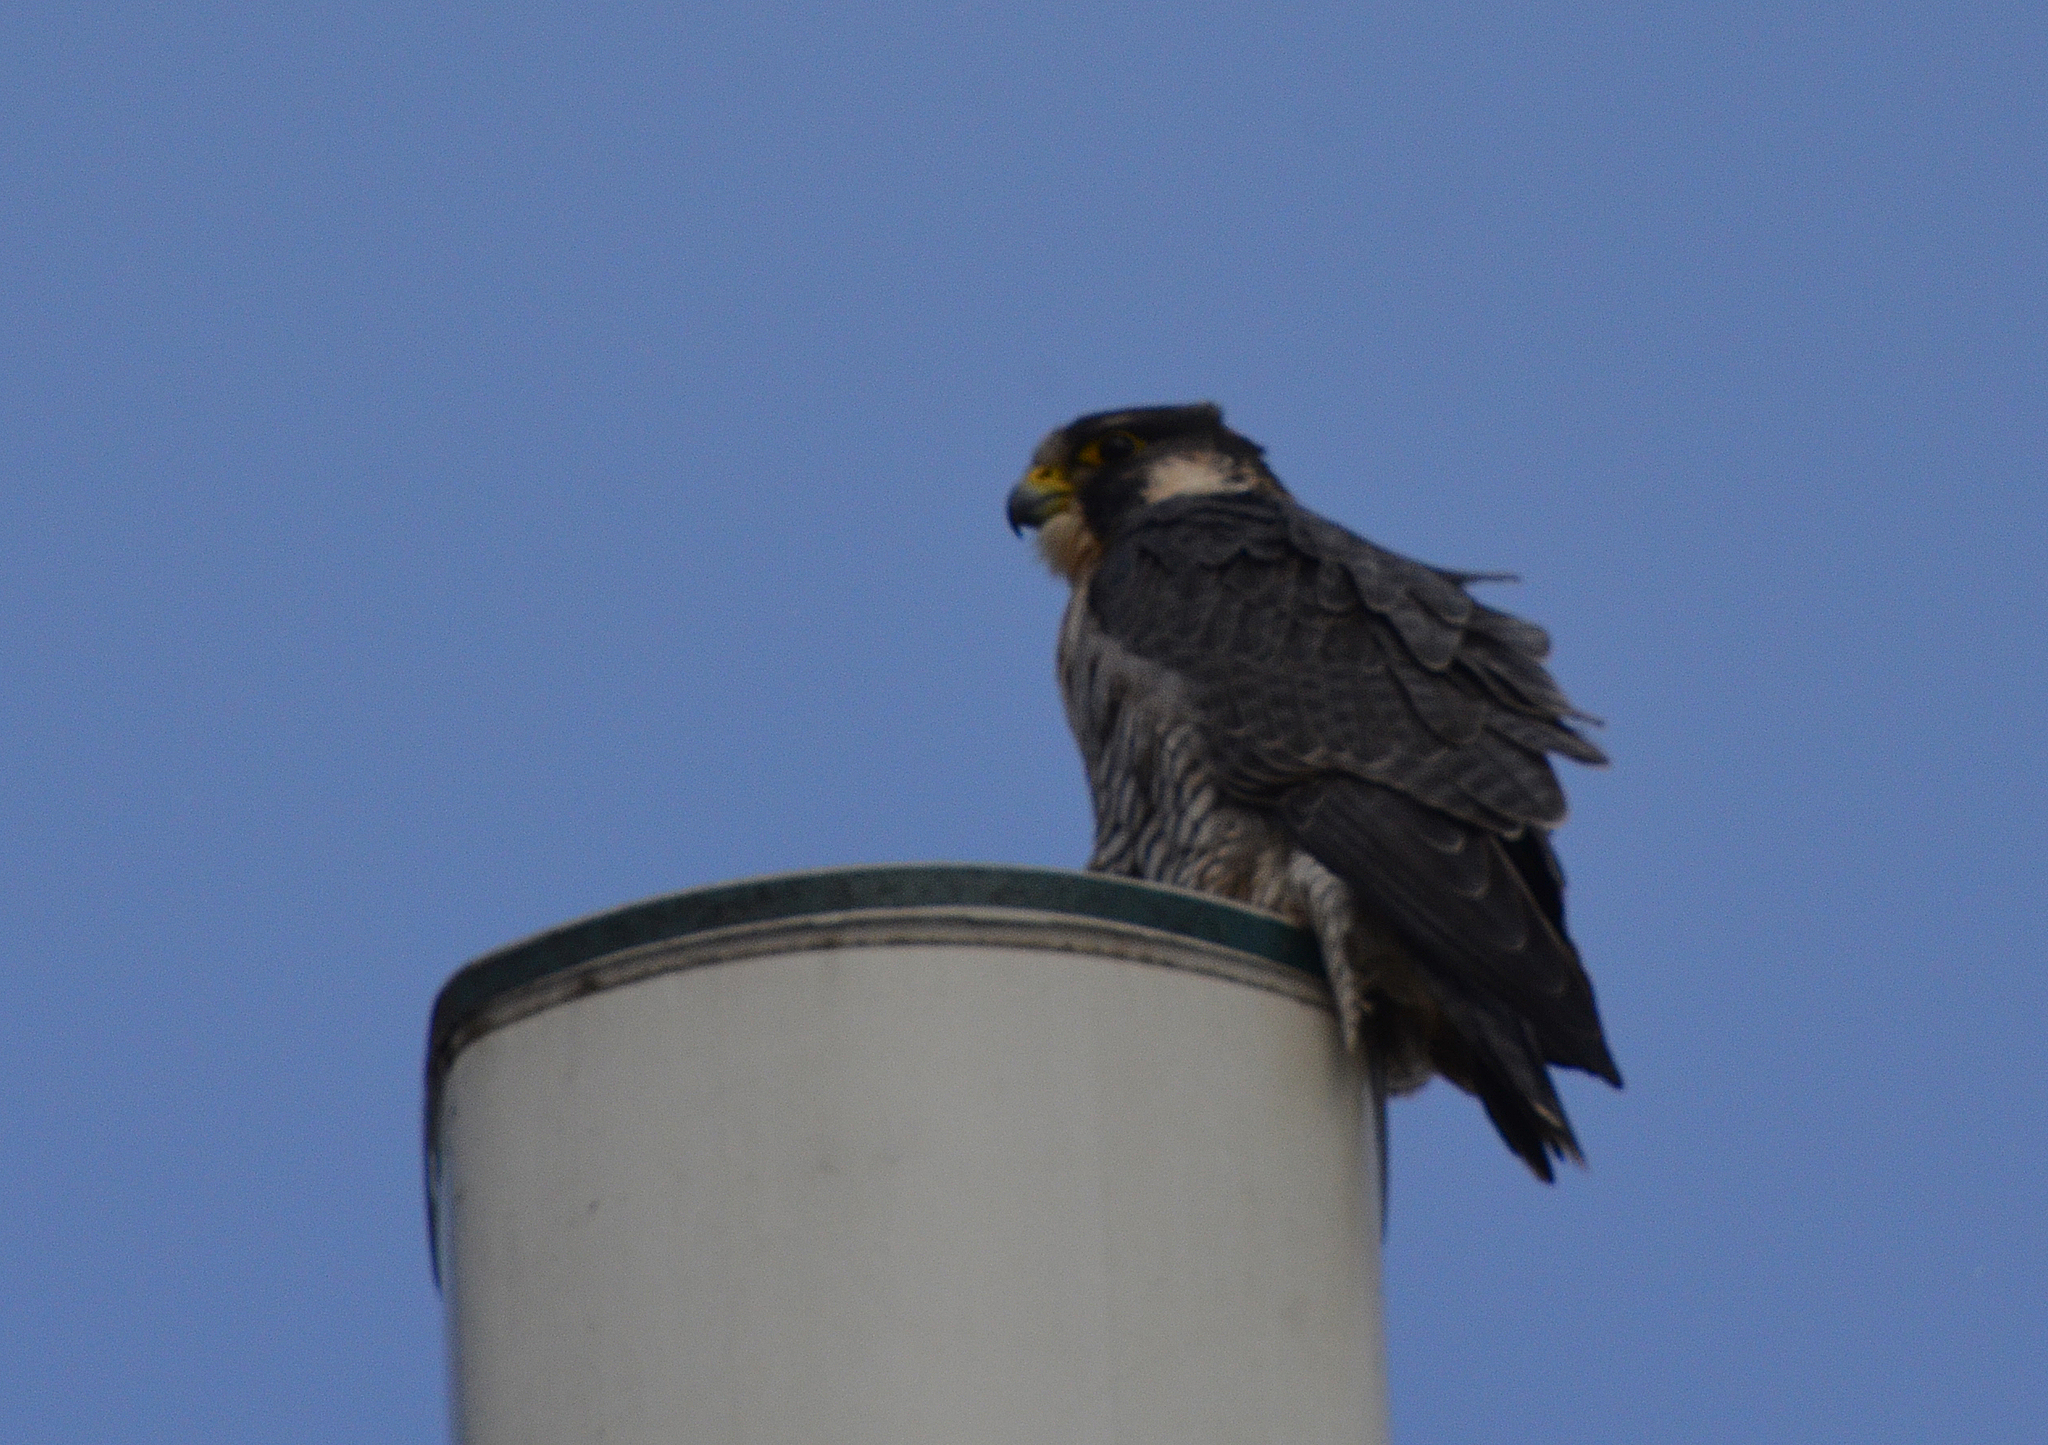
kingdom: Animalia
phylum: Chordata
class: Aves
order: Falconiformes
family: Falconidae
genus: Falco
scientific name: Falco peregrinus
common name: Peregrine falcon
